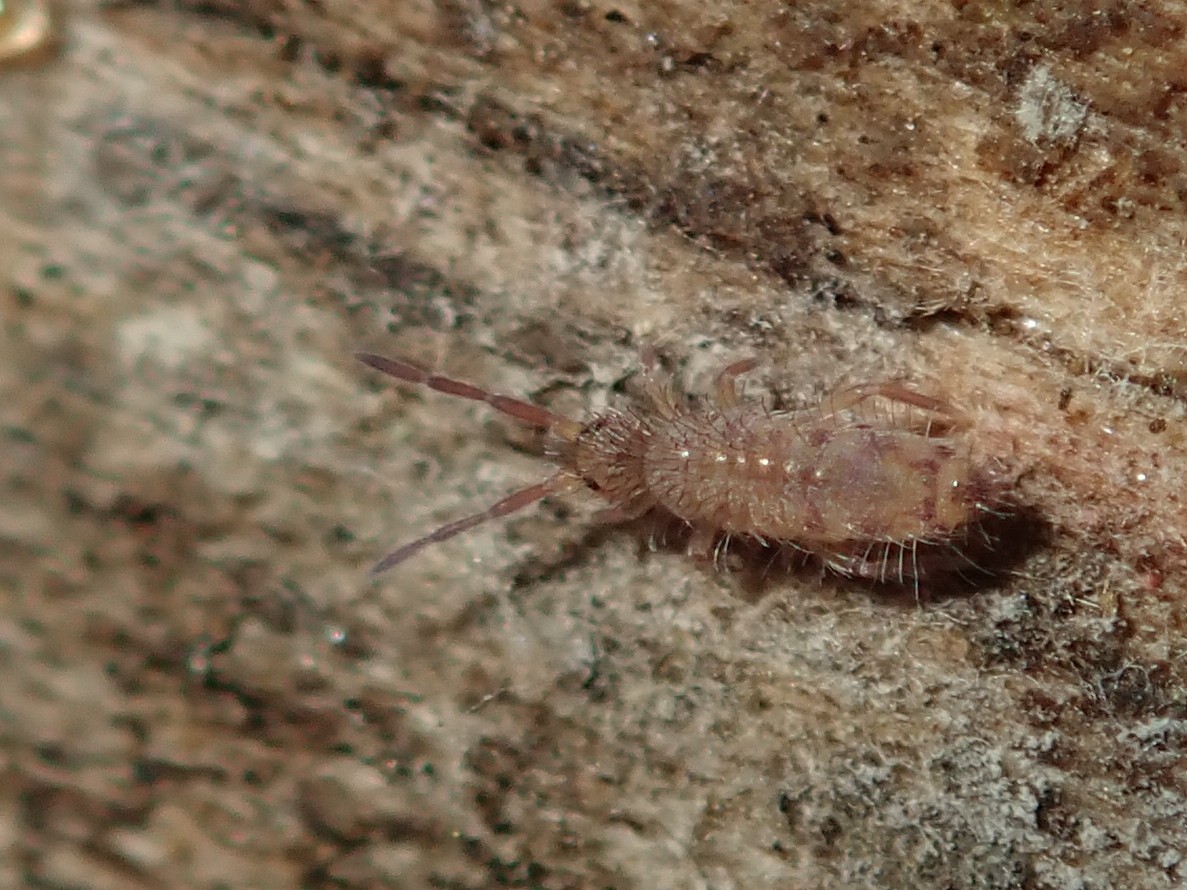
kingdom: Animalia
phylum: Arthropoda
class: Collembola
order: Entomobryomorpha
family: Entomobryidae
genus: Entomobrya
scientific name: Entomobrya multifasciata
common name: Springtail
